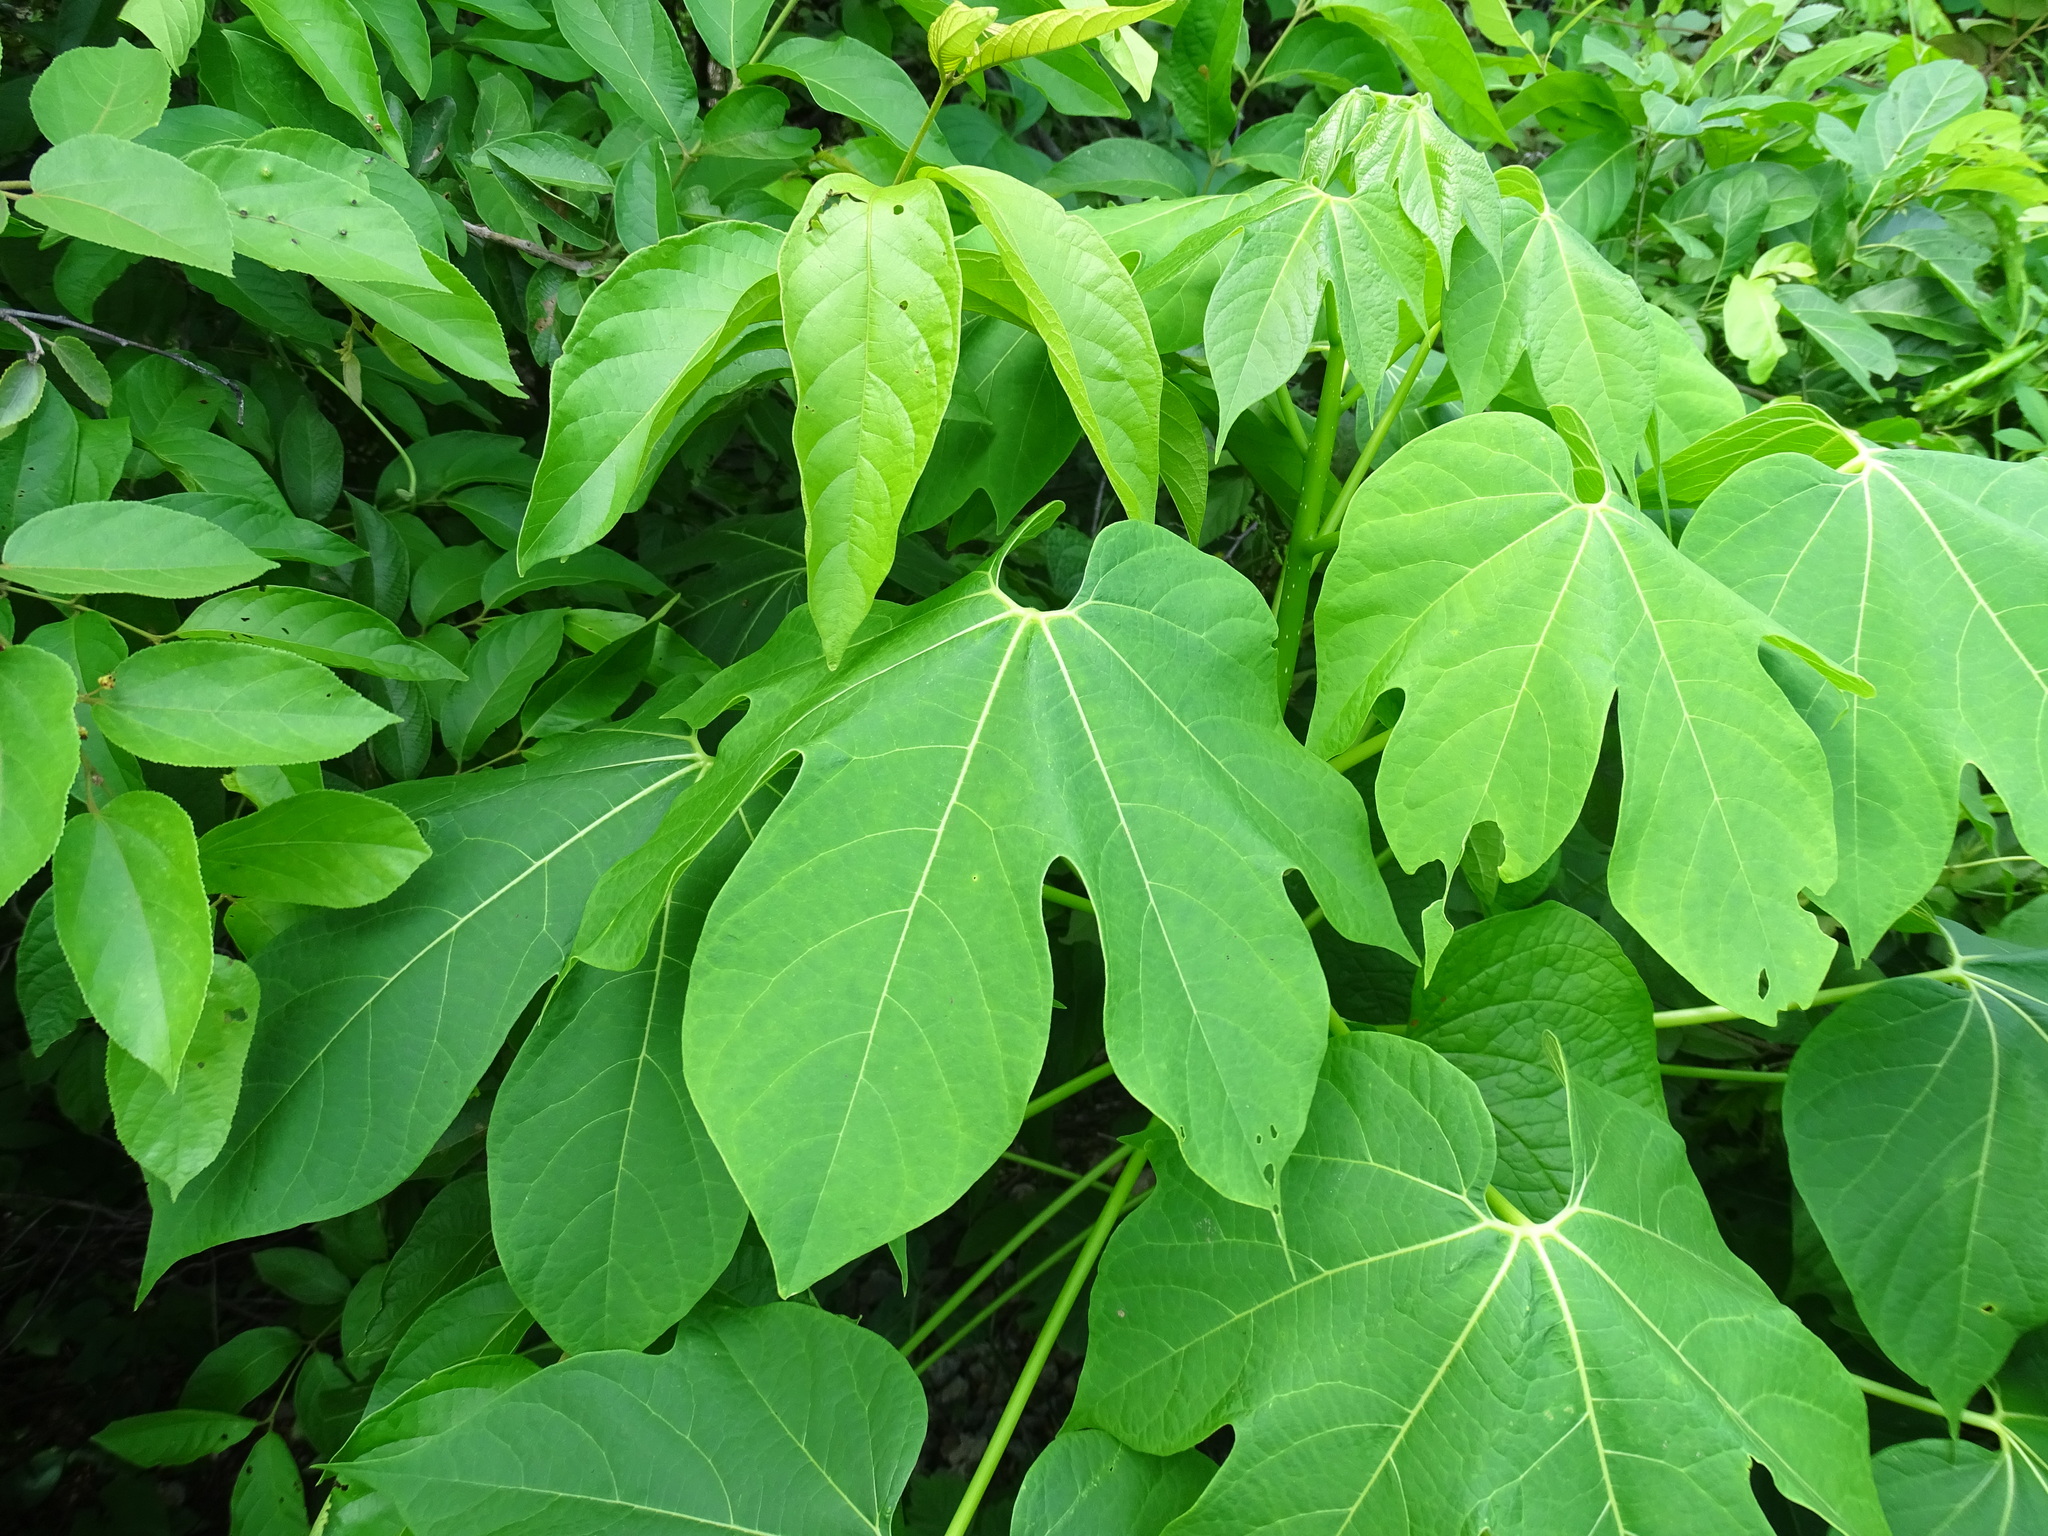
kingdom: Plantae
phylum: Tracheophyta
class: Magnoliopsida
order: Laurales
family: Hernandiaceae
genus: Gyrocarpus
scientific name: Gyrocarpus jatrophifolius
